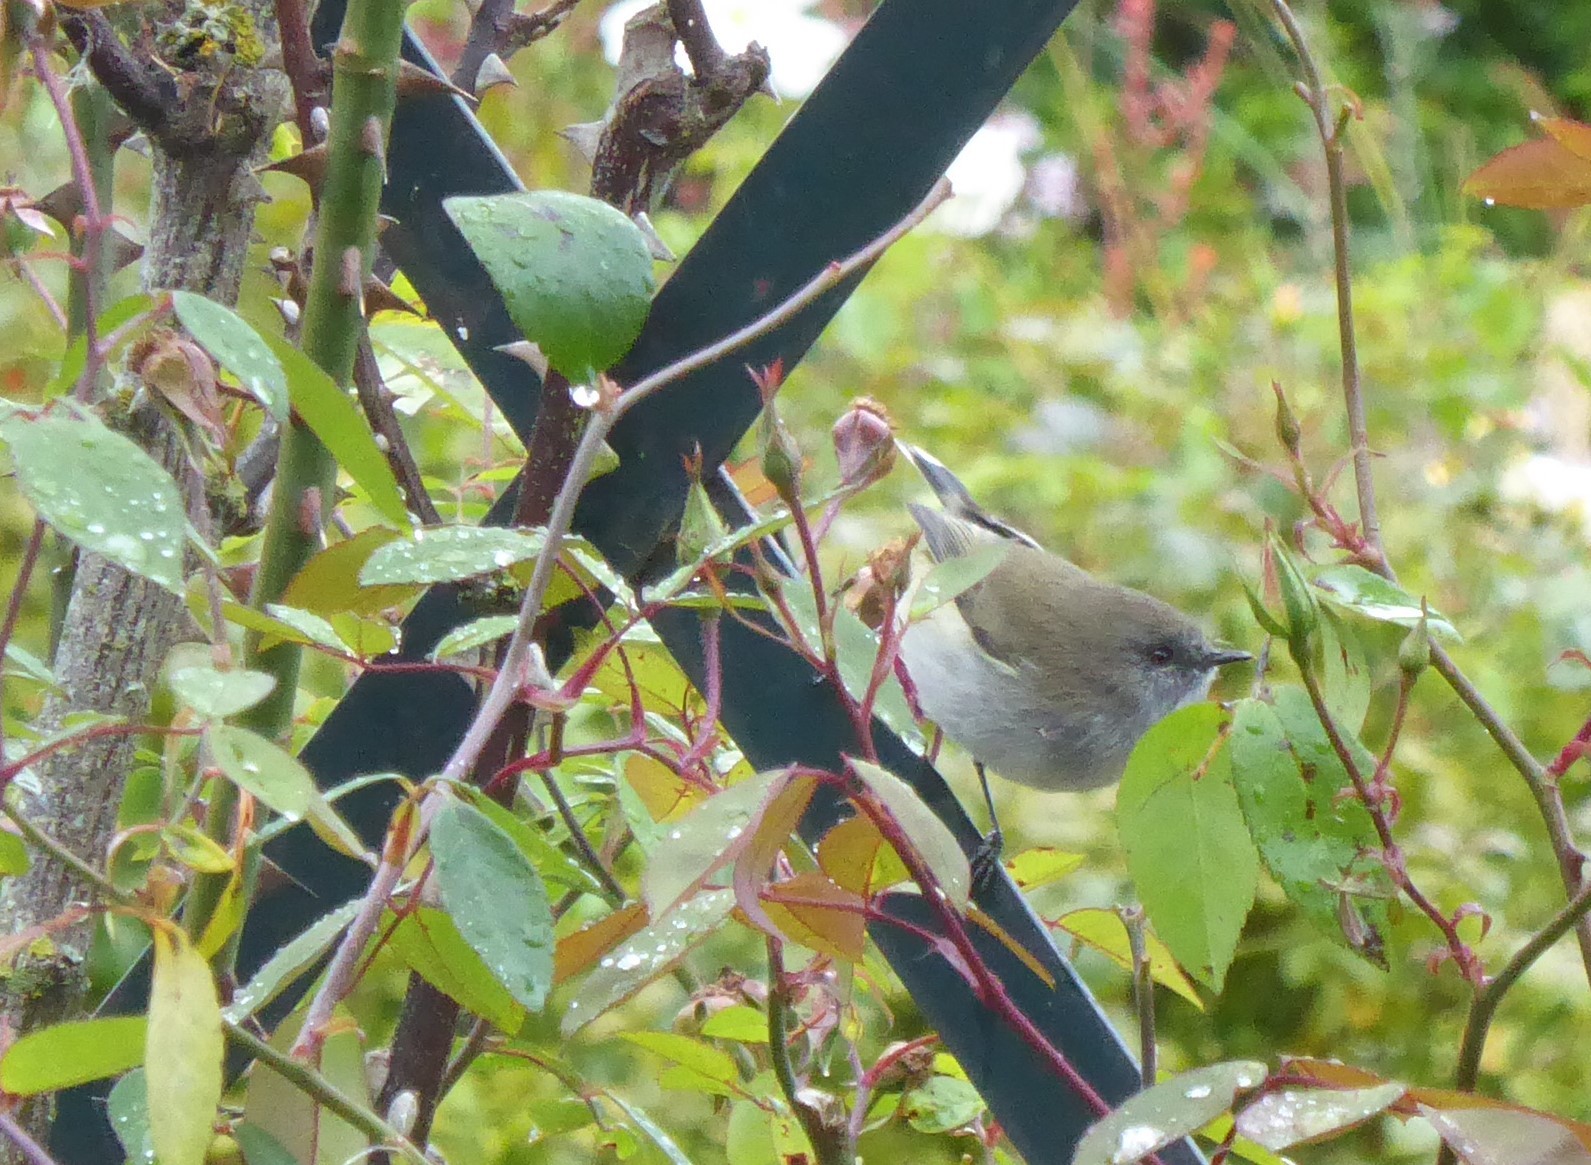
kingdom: Animalia
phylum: Chordata
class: Aves
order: Passeriformes
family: Acanthizidae
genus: Gerygone
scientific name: Gerygone igata
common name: Grey gerygone
